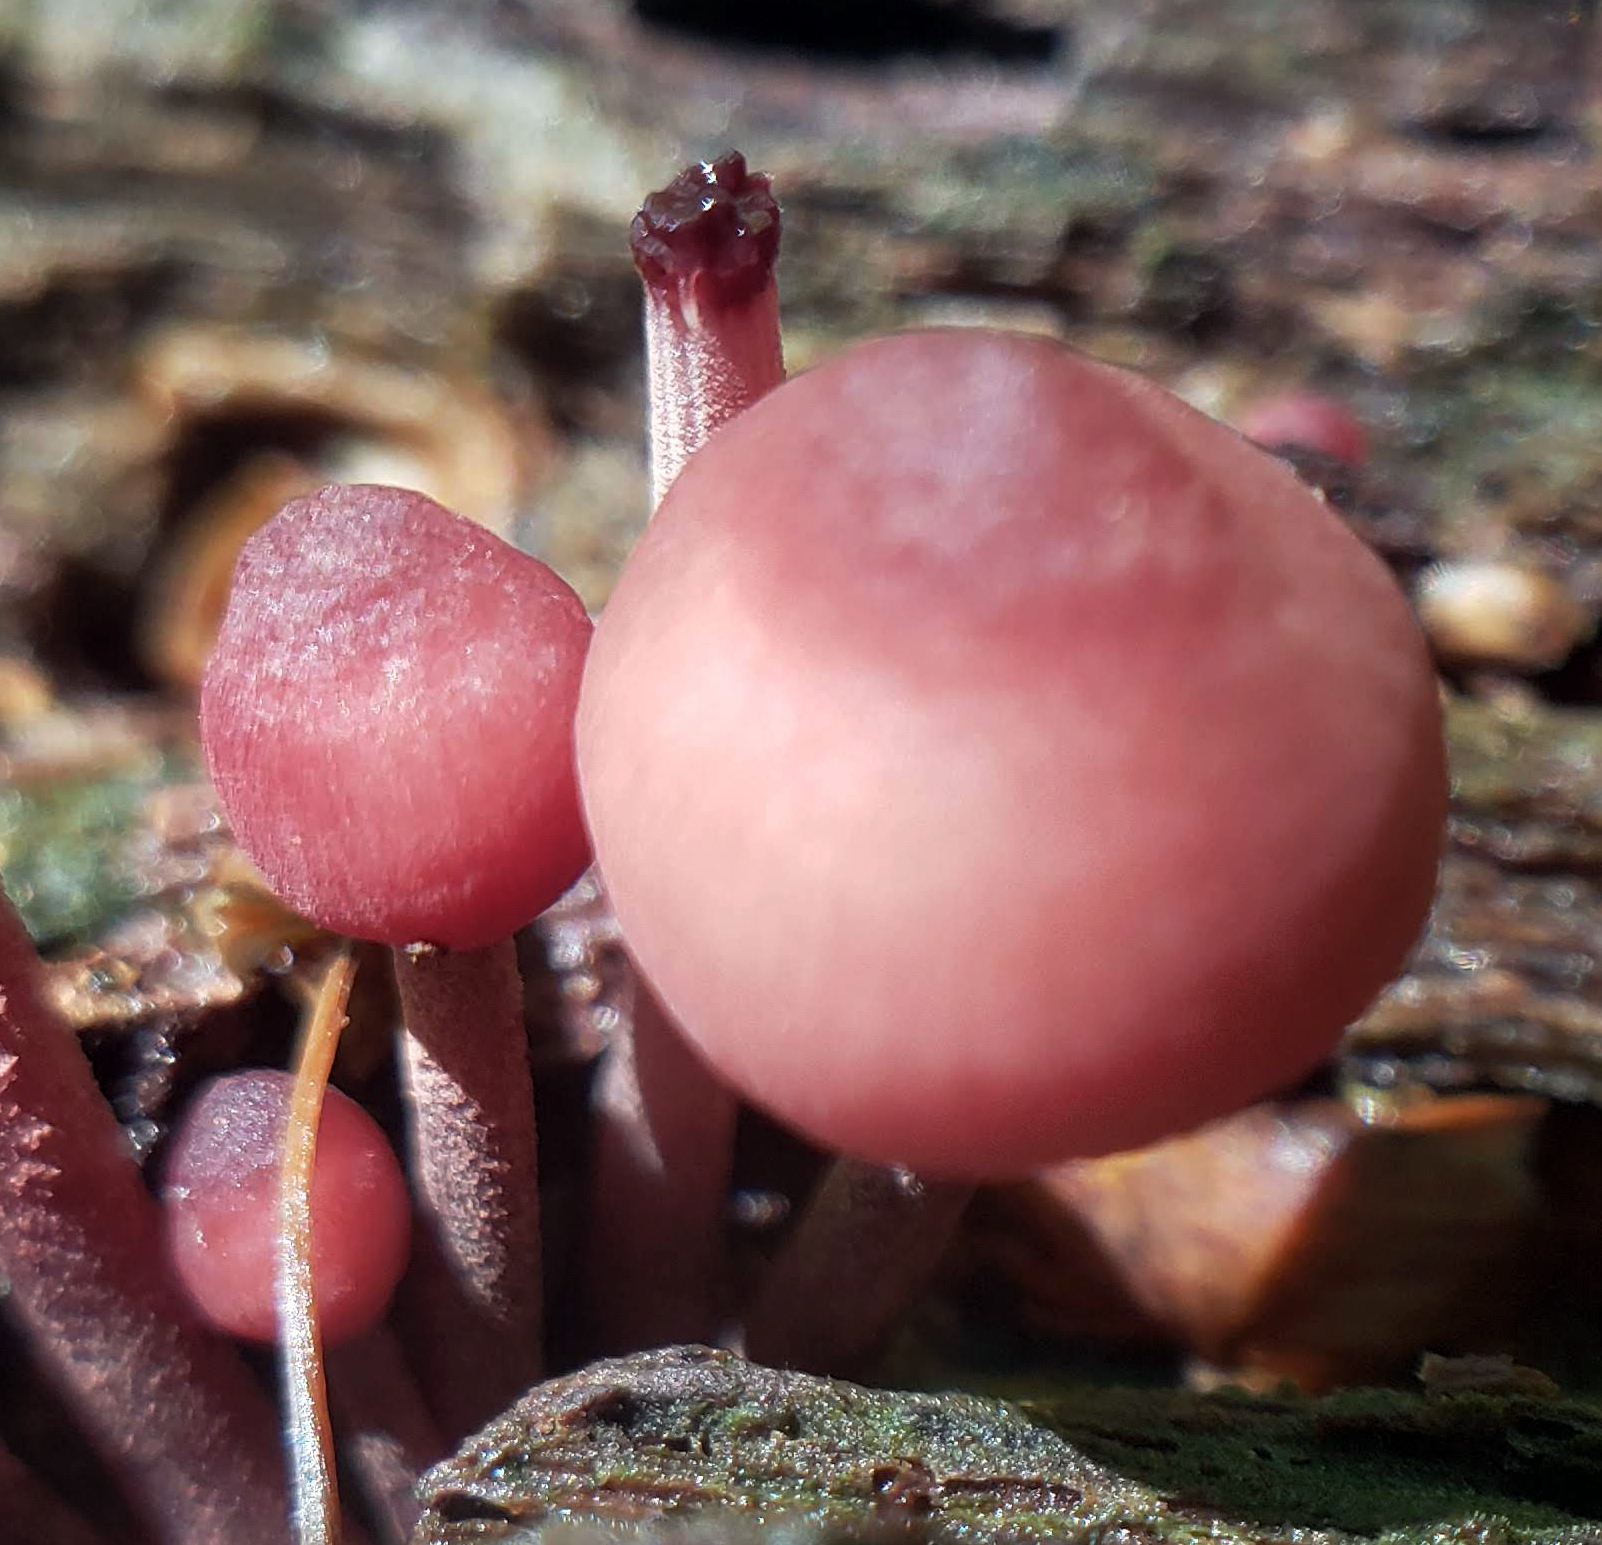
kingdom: Fungi
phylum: Basidiomycota
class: Agaricomycetes
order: Agaricales
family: Mycenaceae
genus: Mycena
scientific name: Mycena haematopus
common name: Burgundydrop bonnet
